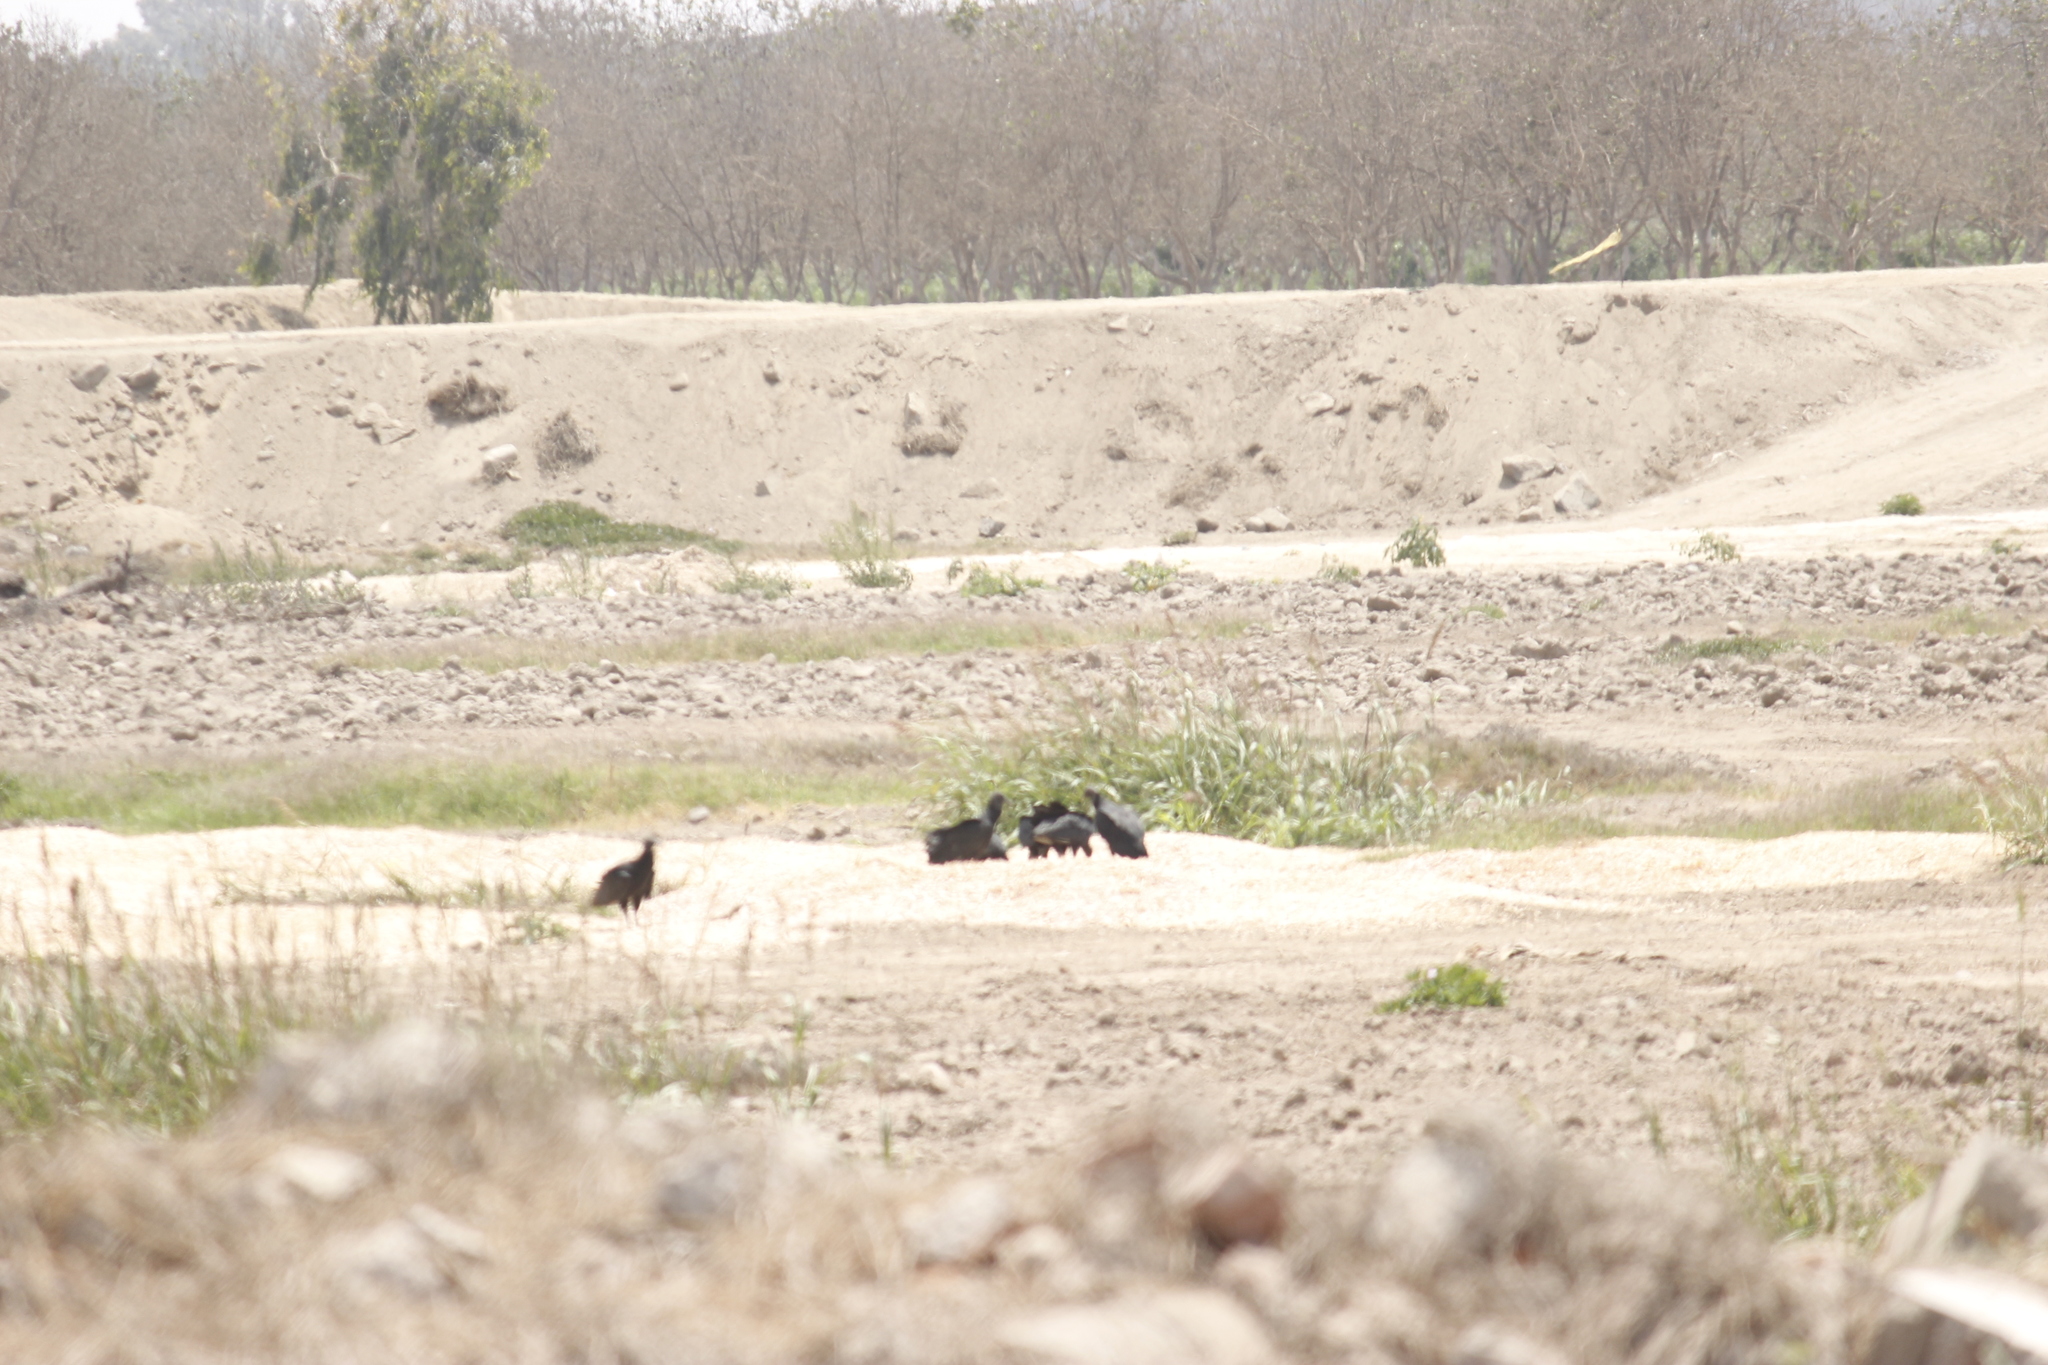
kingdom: Animalia
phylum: Chordata
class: Aves
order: Accipitriformes
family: Cathartidae
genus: Coragyps
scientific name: Coragyps atratus
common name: Black vulture
